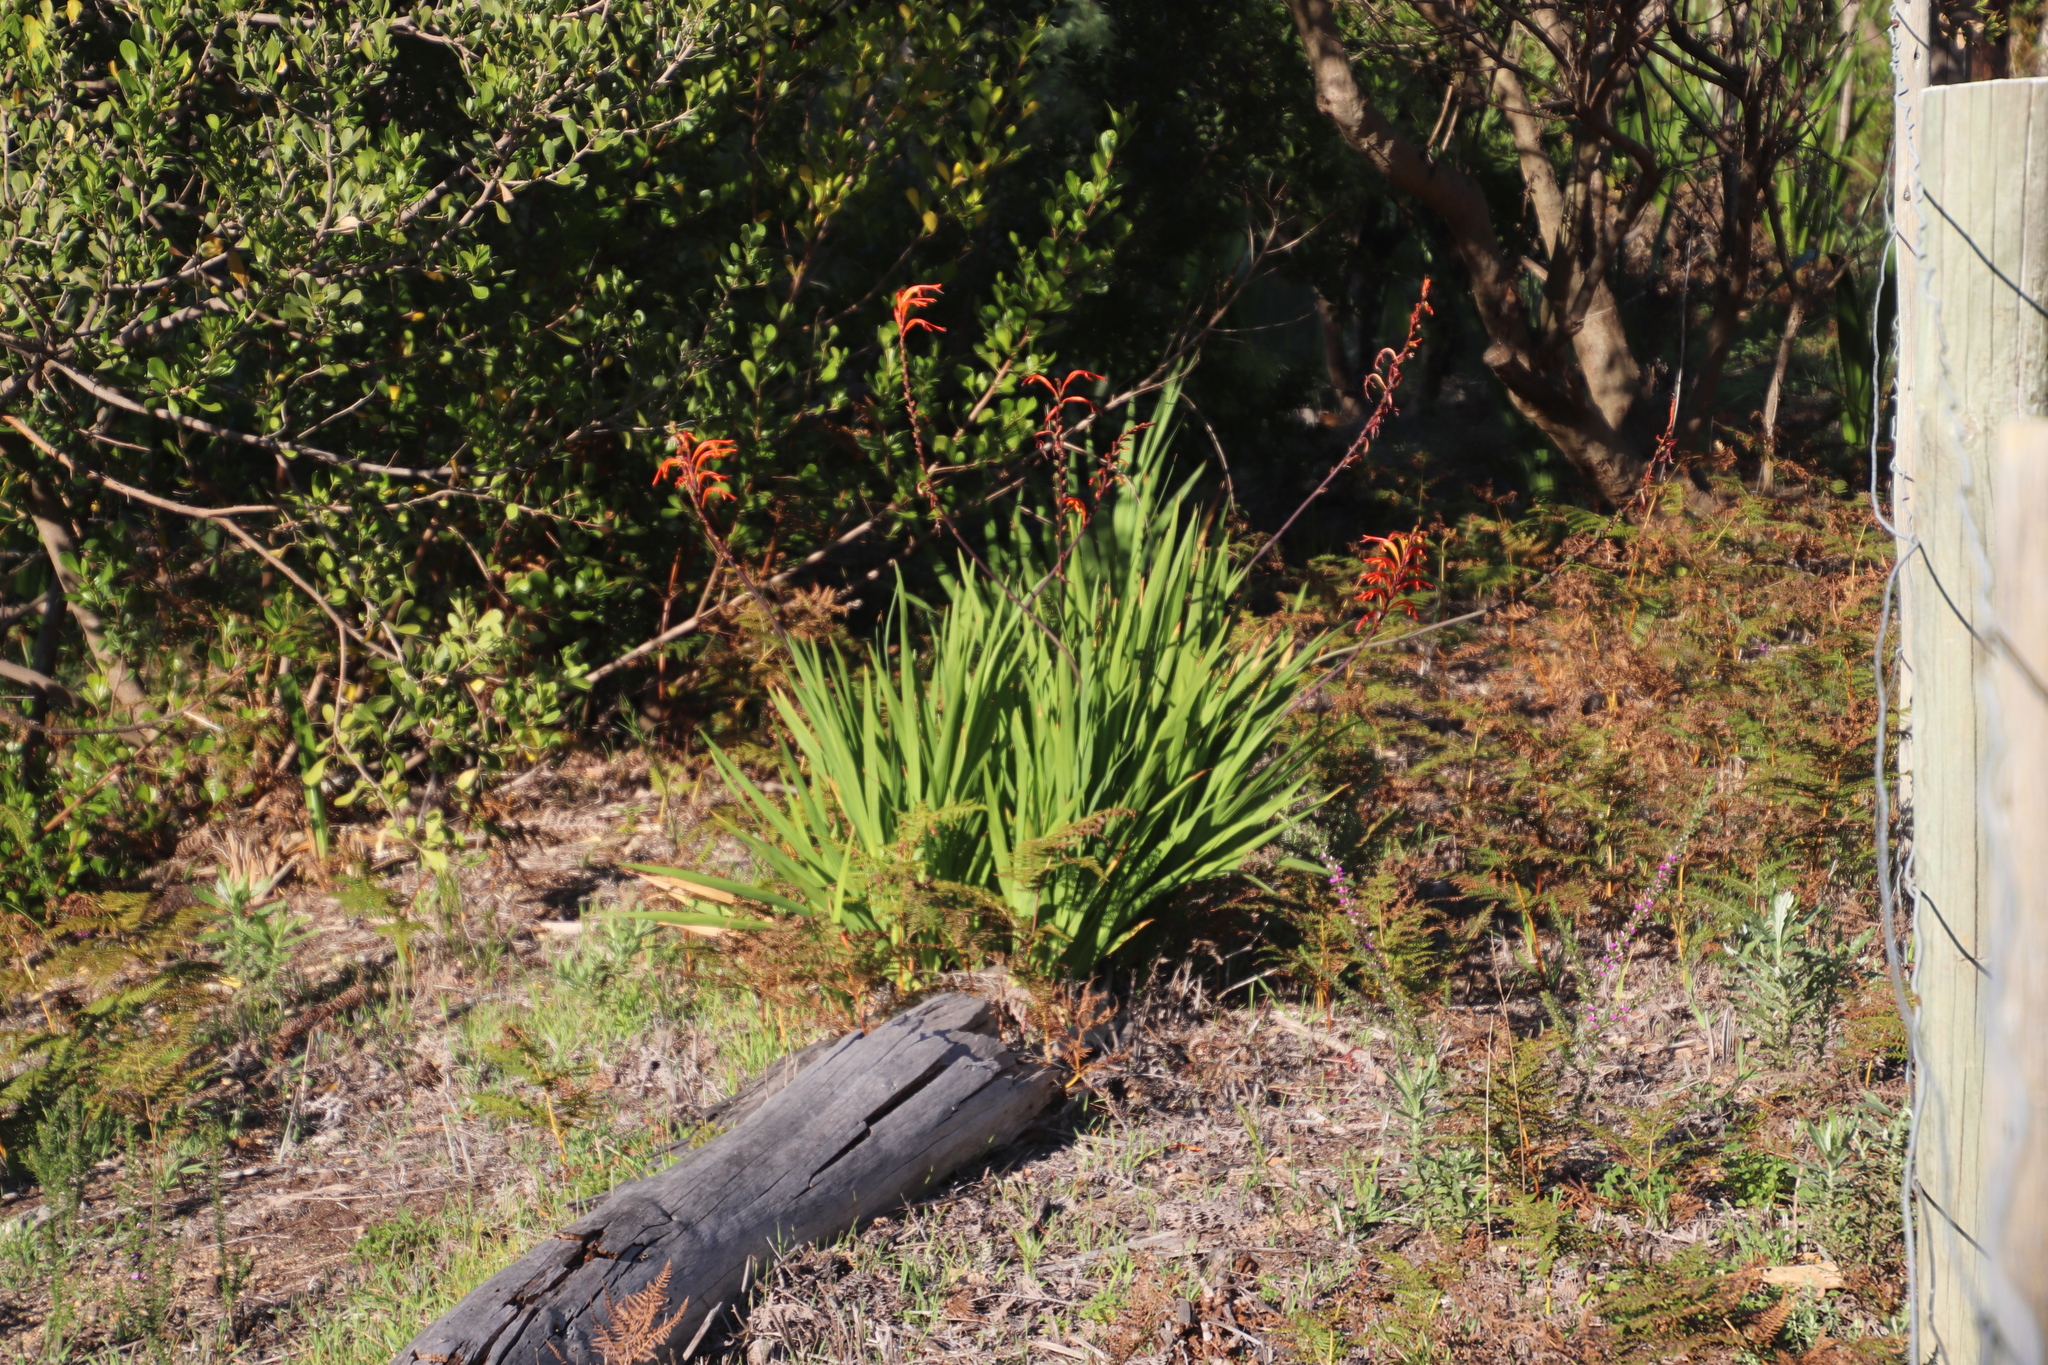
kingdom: Plantae
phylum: Tracheophyta
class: Liliopsida
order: Asparagales
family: Iridaceae
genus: Chasmanthe
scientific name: Chasmanthe floribunda
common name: African cornflag
